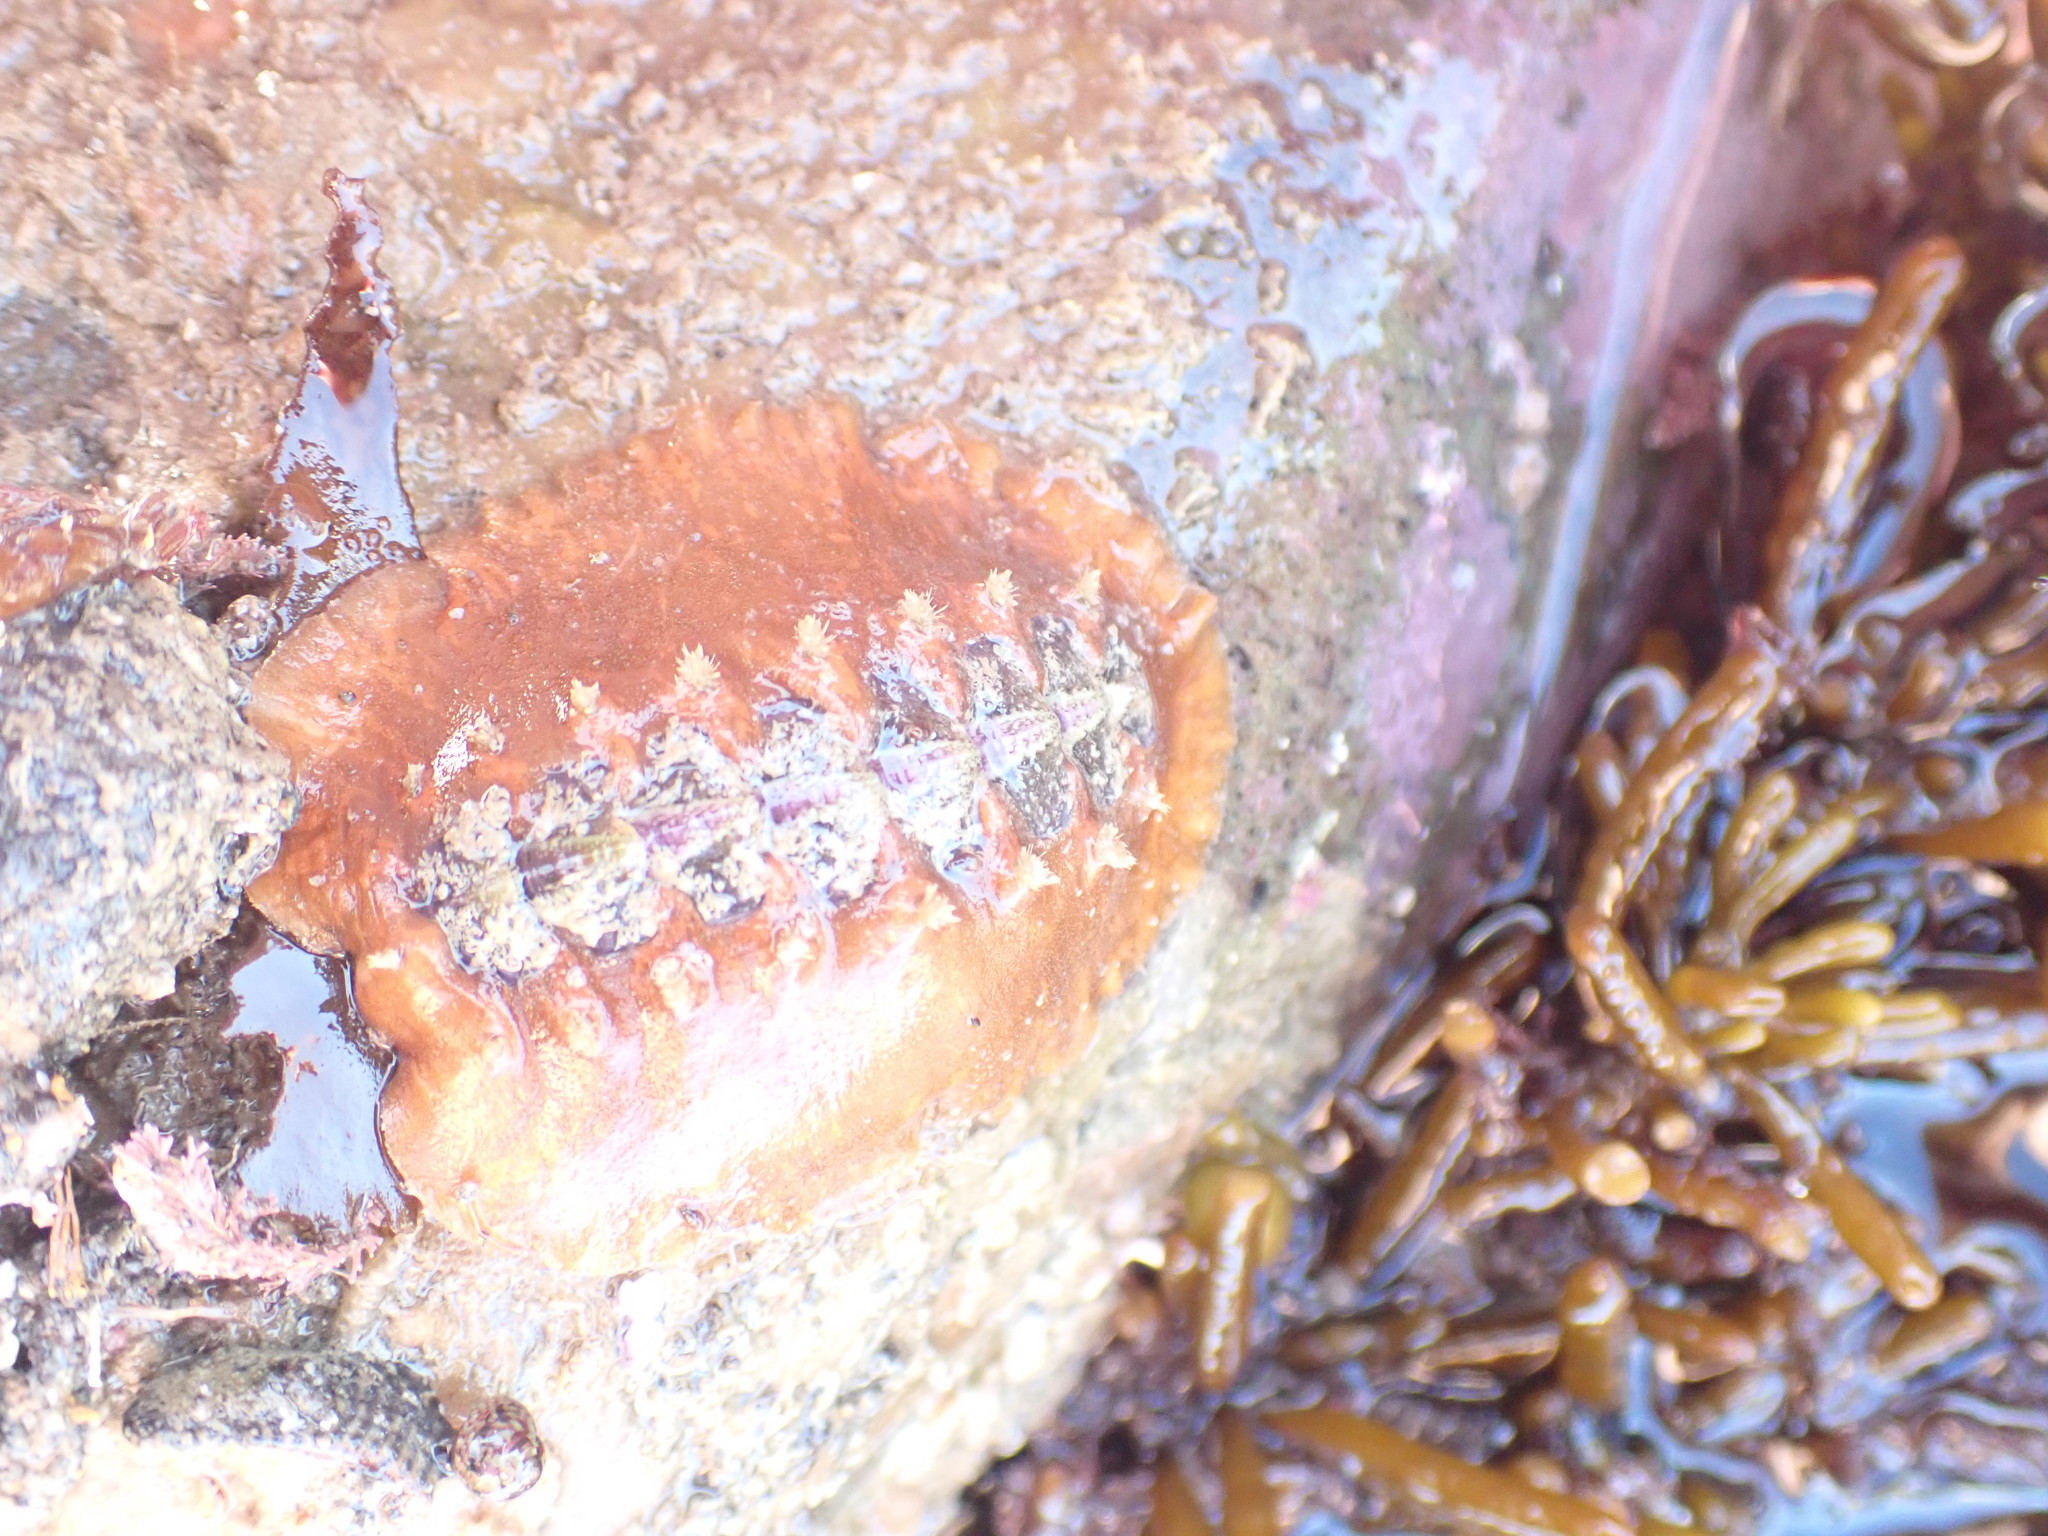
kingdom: Animalia
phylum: Mollusca
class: Polyplacophora
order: Chitonida
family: Acanthochitonidae
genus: Notoplax
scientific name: Notoplax violacea
